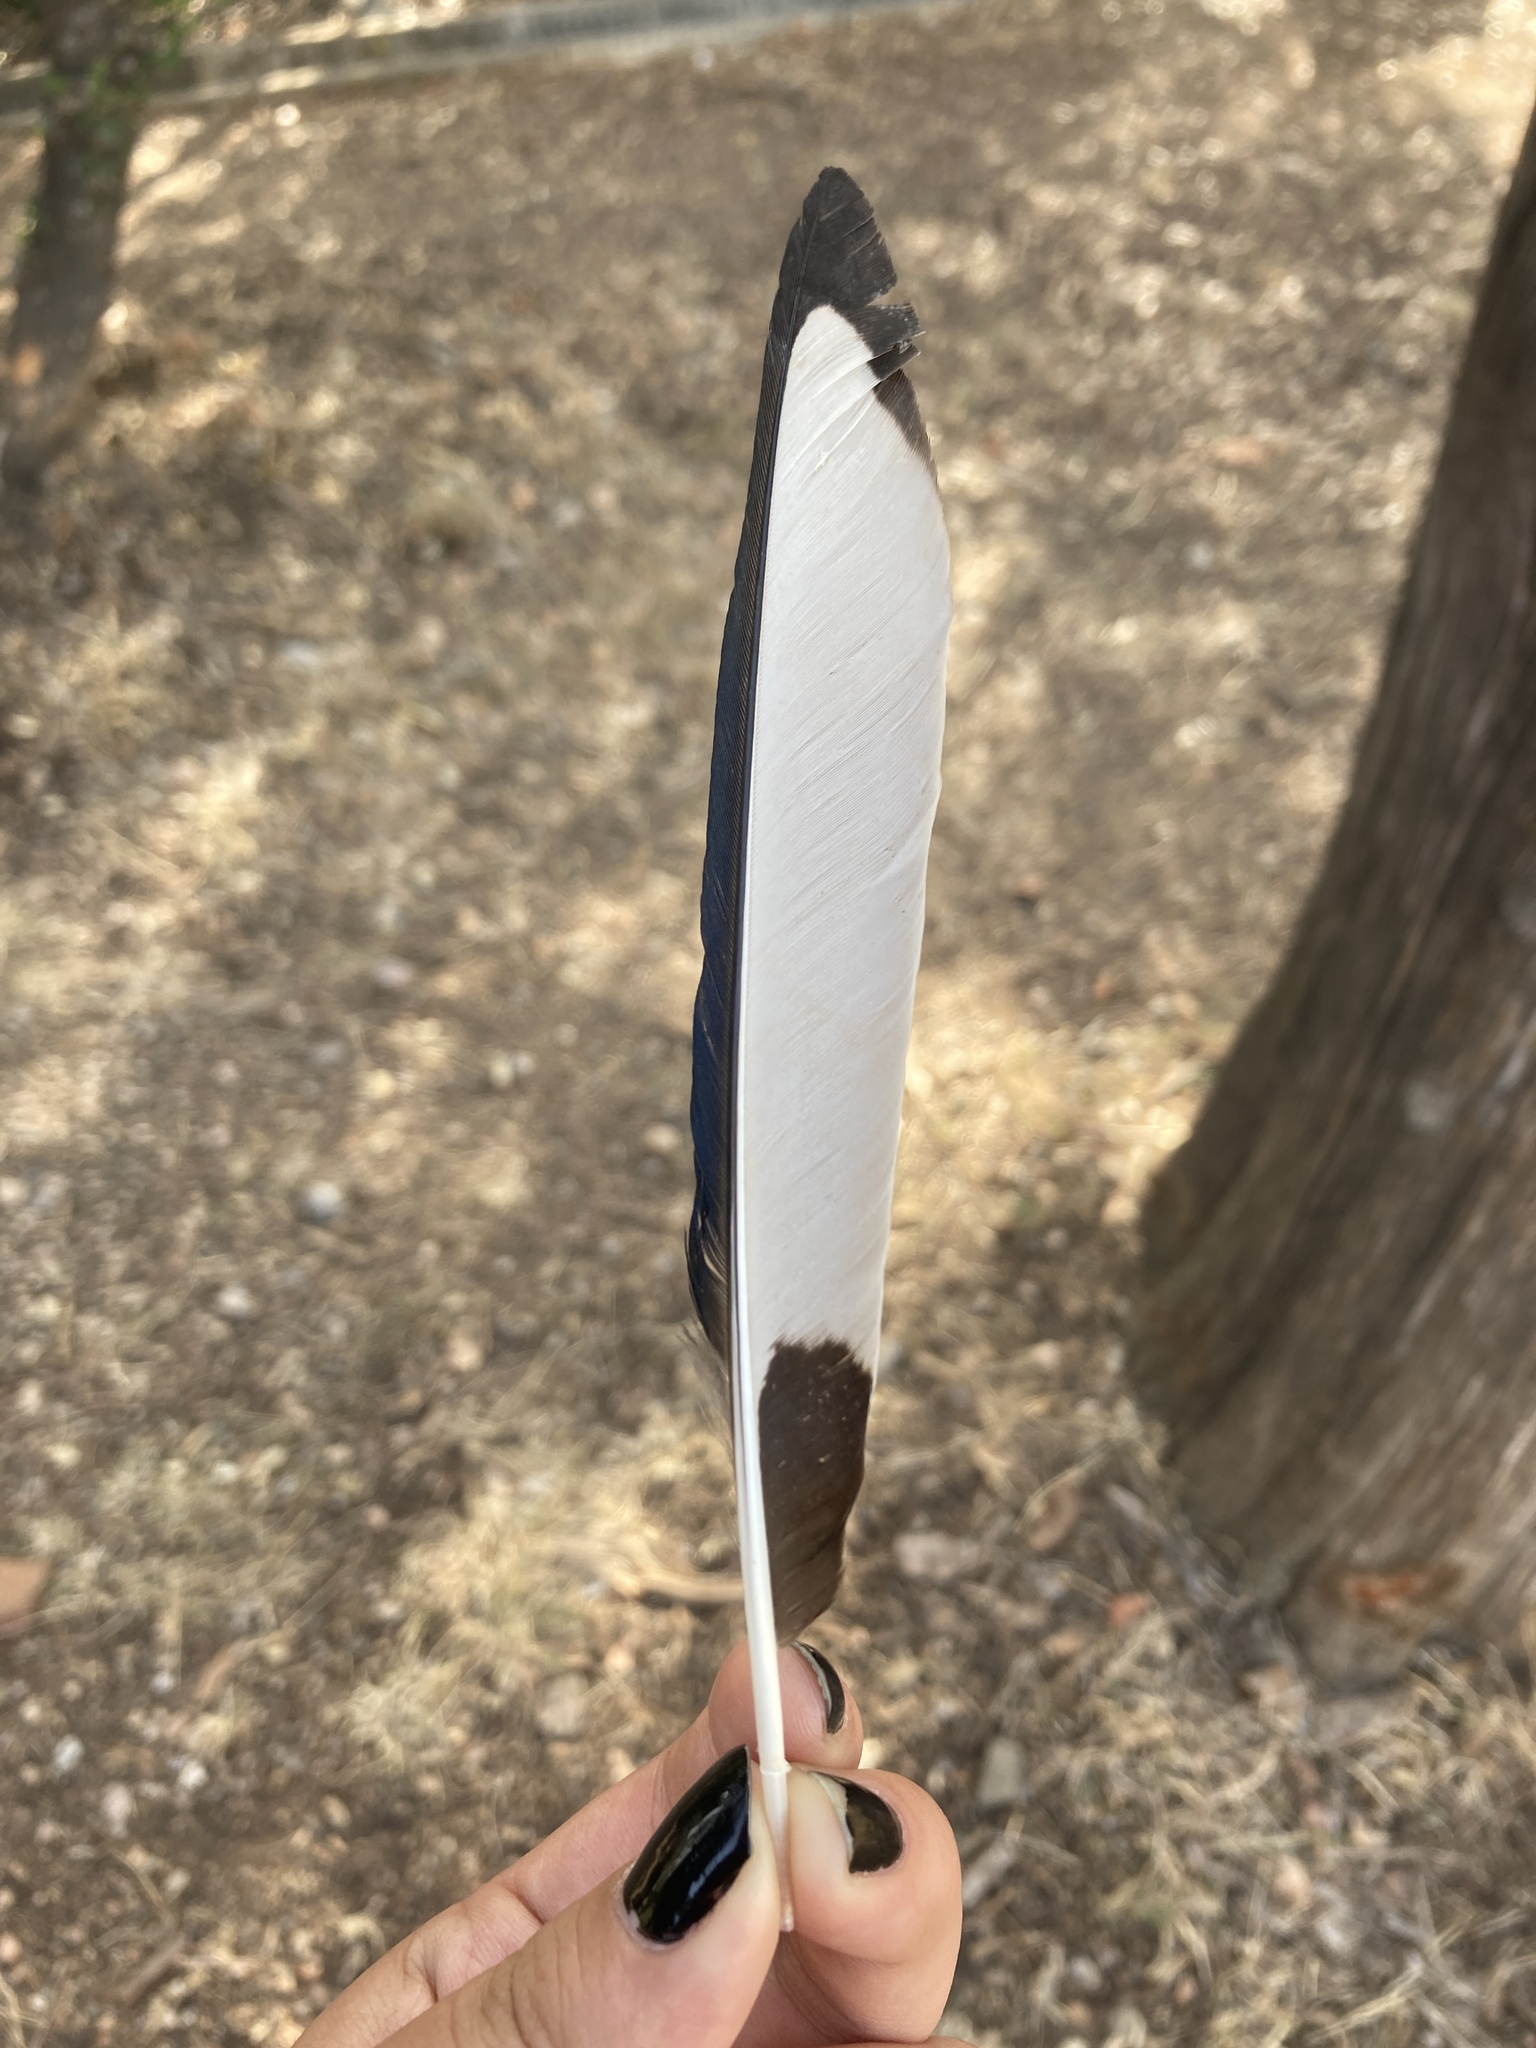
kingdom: Animalia
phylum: Chordata
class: Aves
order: Passeriformes
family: Corvidae
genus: Pica
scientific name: Pica pica
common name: Eurasian magpie
